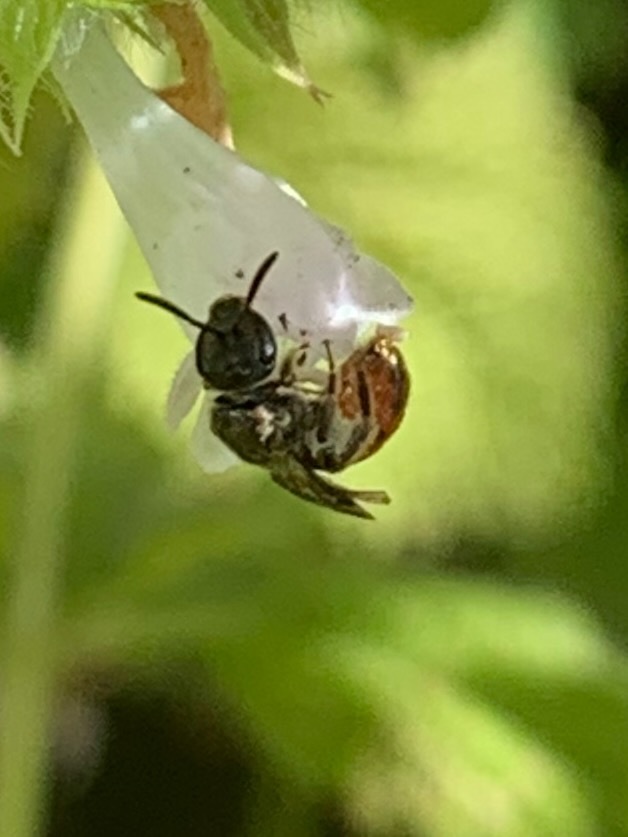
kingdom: Animalia
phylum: Arthropoda
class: Insecta
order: Hymenoptera
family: Halictidae
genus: Lasioglossum
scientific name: Lasioglossum ovaliceps
